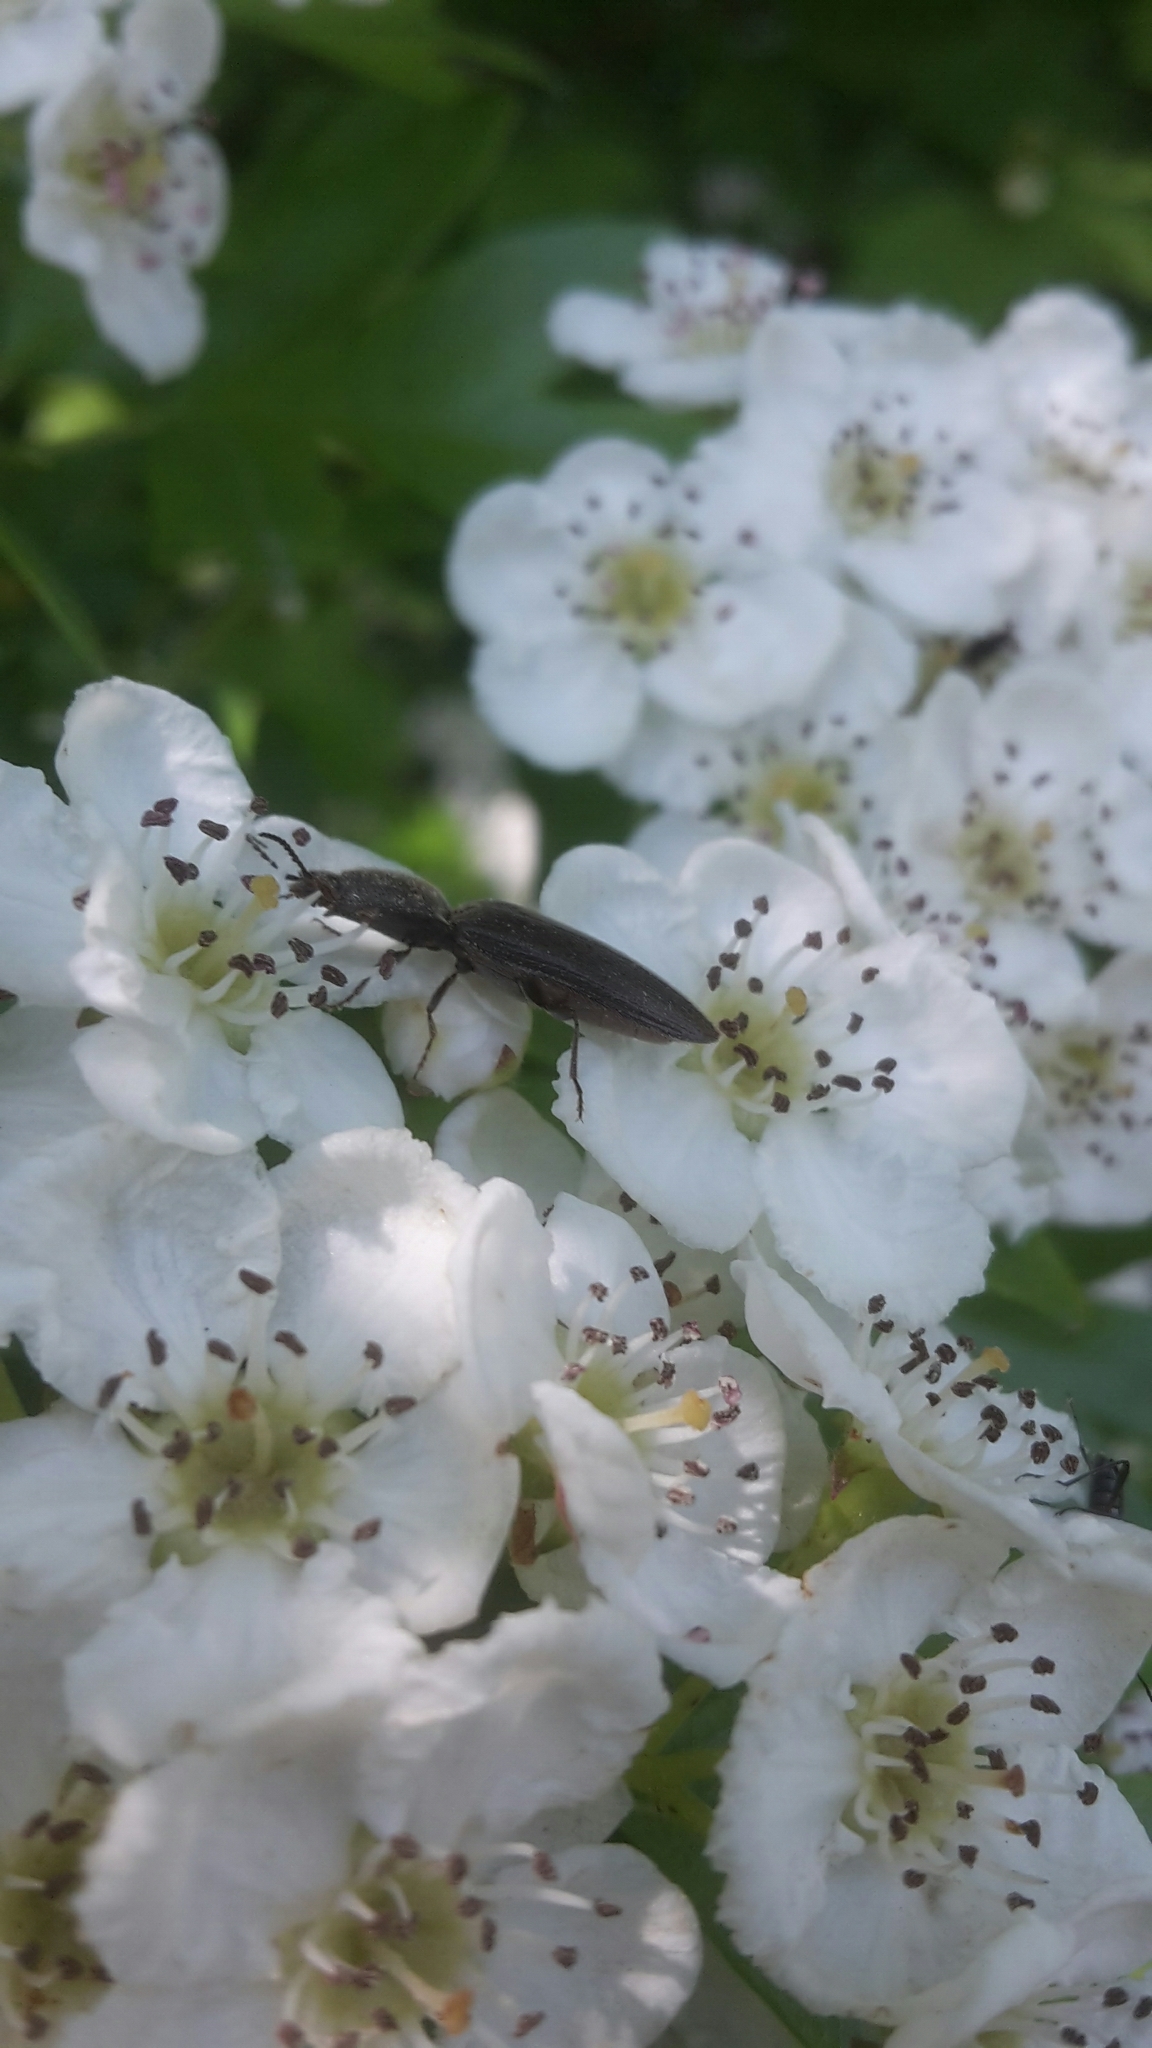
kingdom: Animalia
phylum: Arthropoda
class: Insecta
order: Coleoptera
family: Elateridae
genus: Athous
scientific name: Athous haemorrhoidalis
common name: Red-brown click beetle
